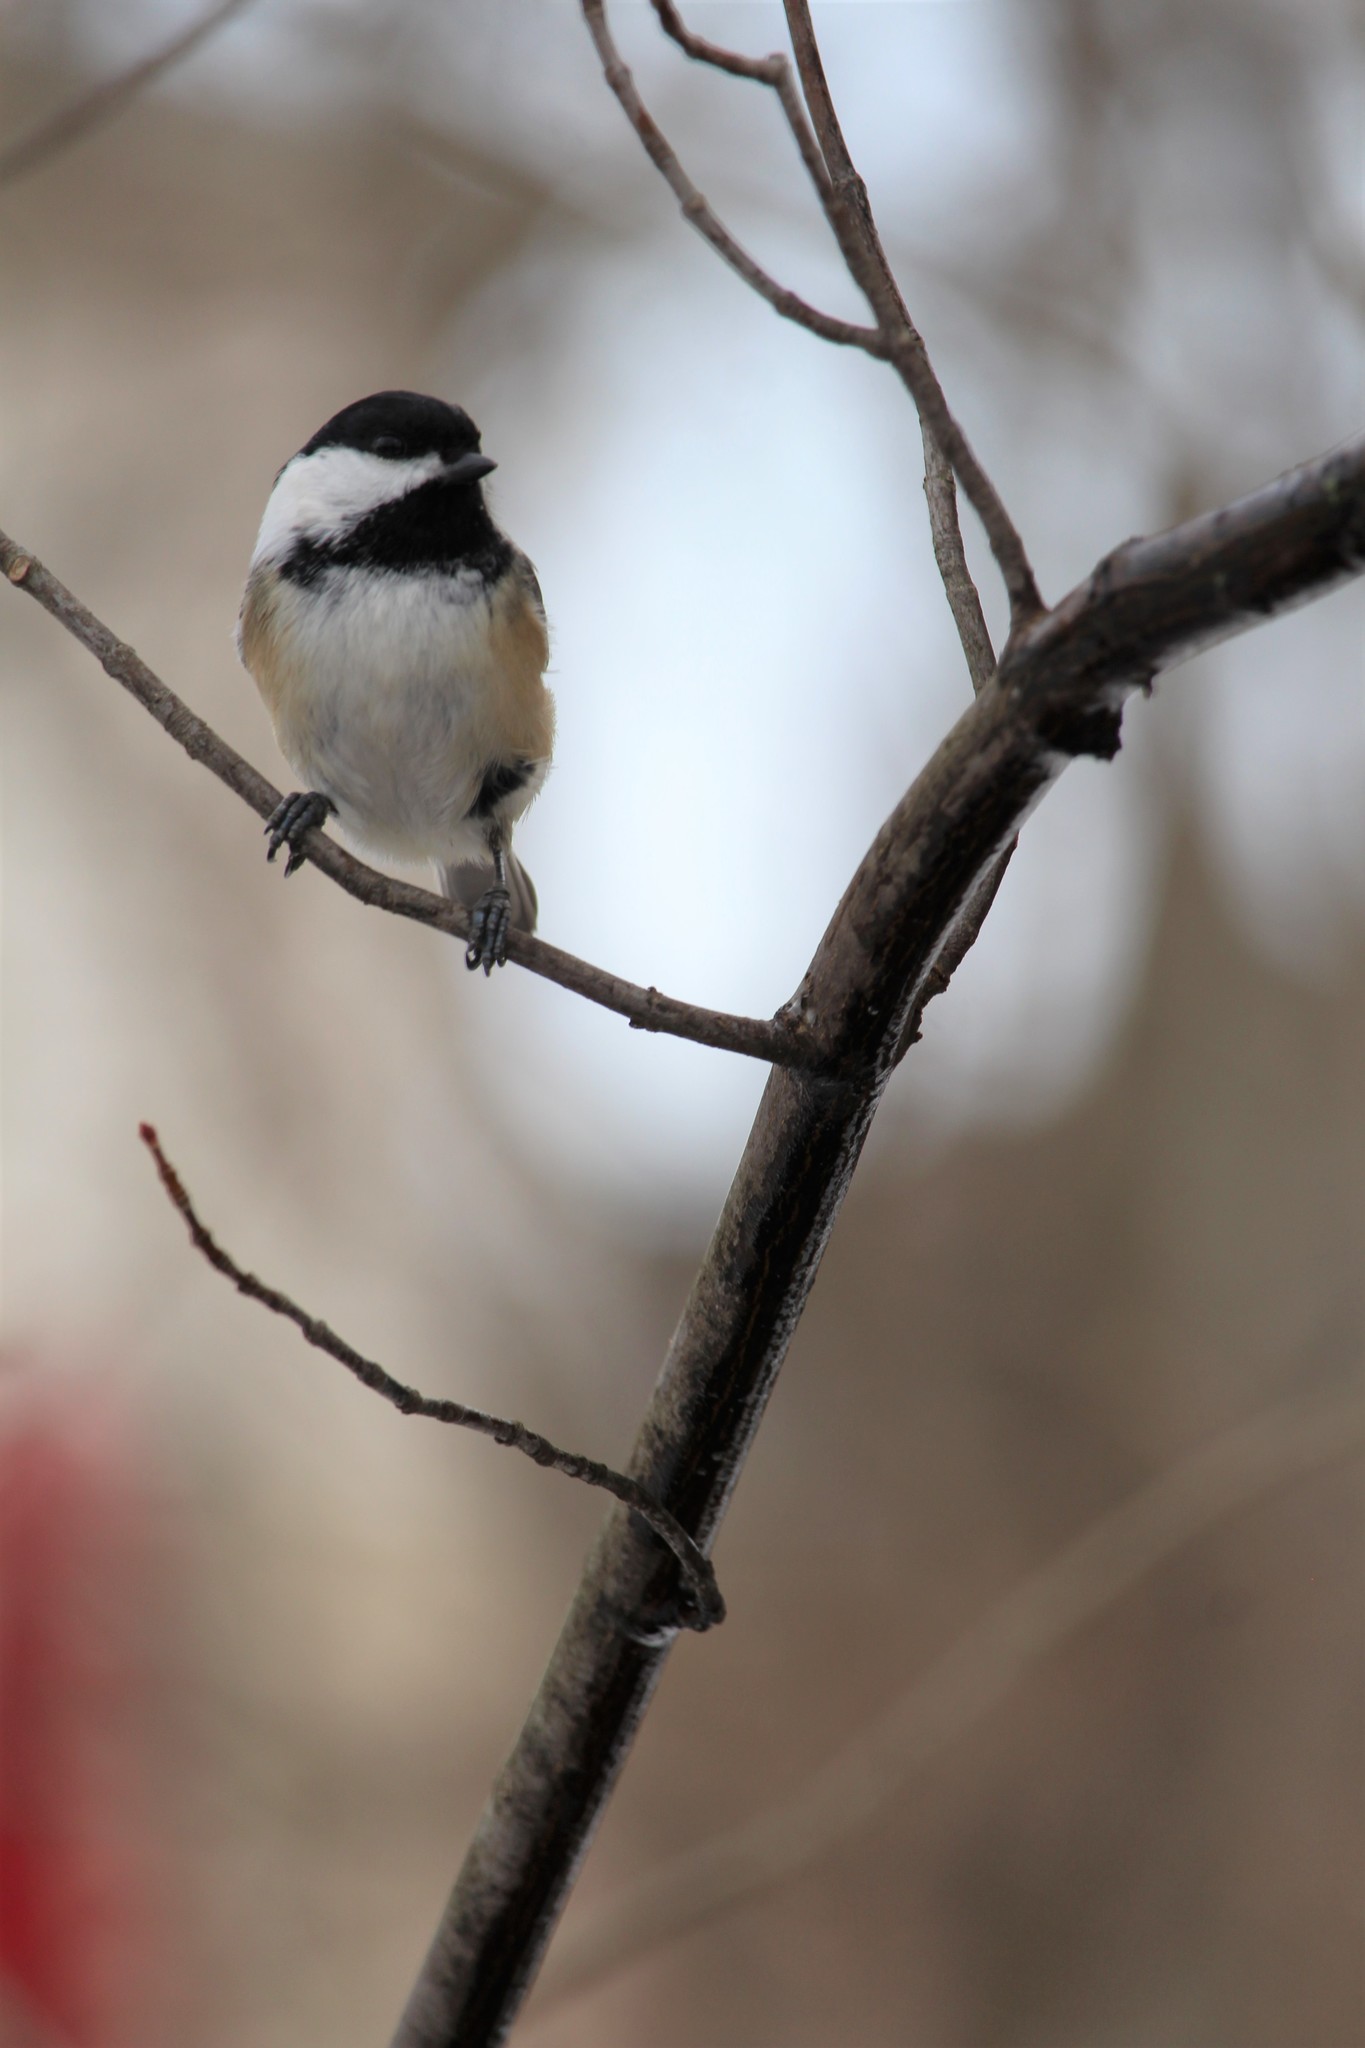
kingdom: Animalia
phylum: Chordata
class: Aves
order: Passeriformes
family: Paridae
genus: Poecile
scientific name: Poecile atricapillus
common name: Black-capped chickadee
